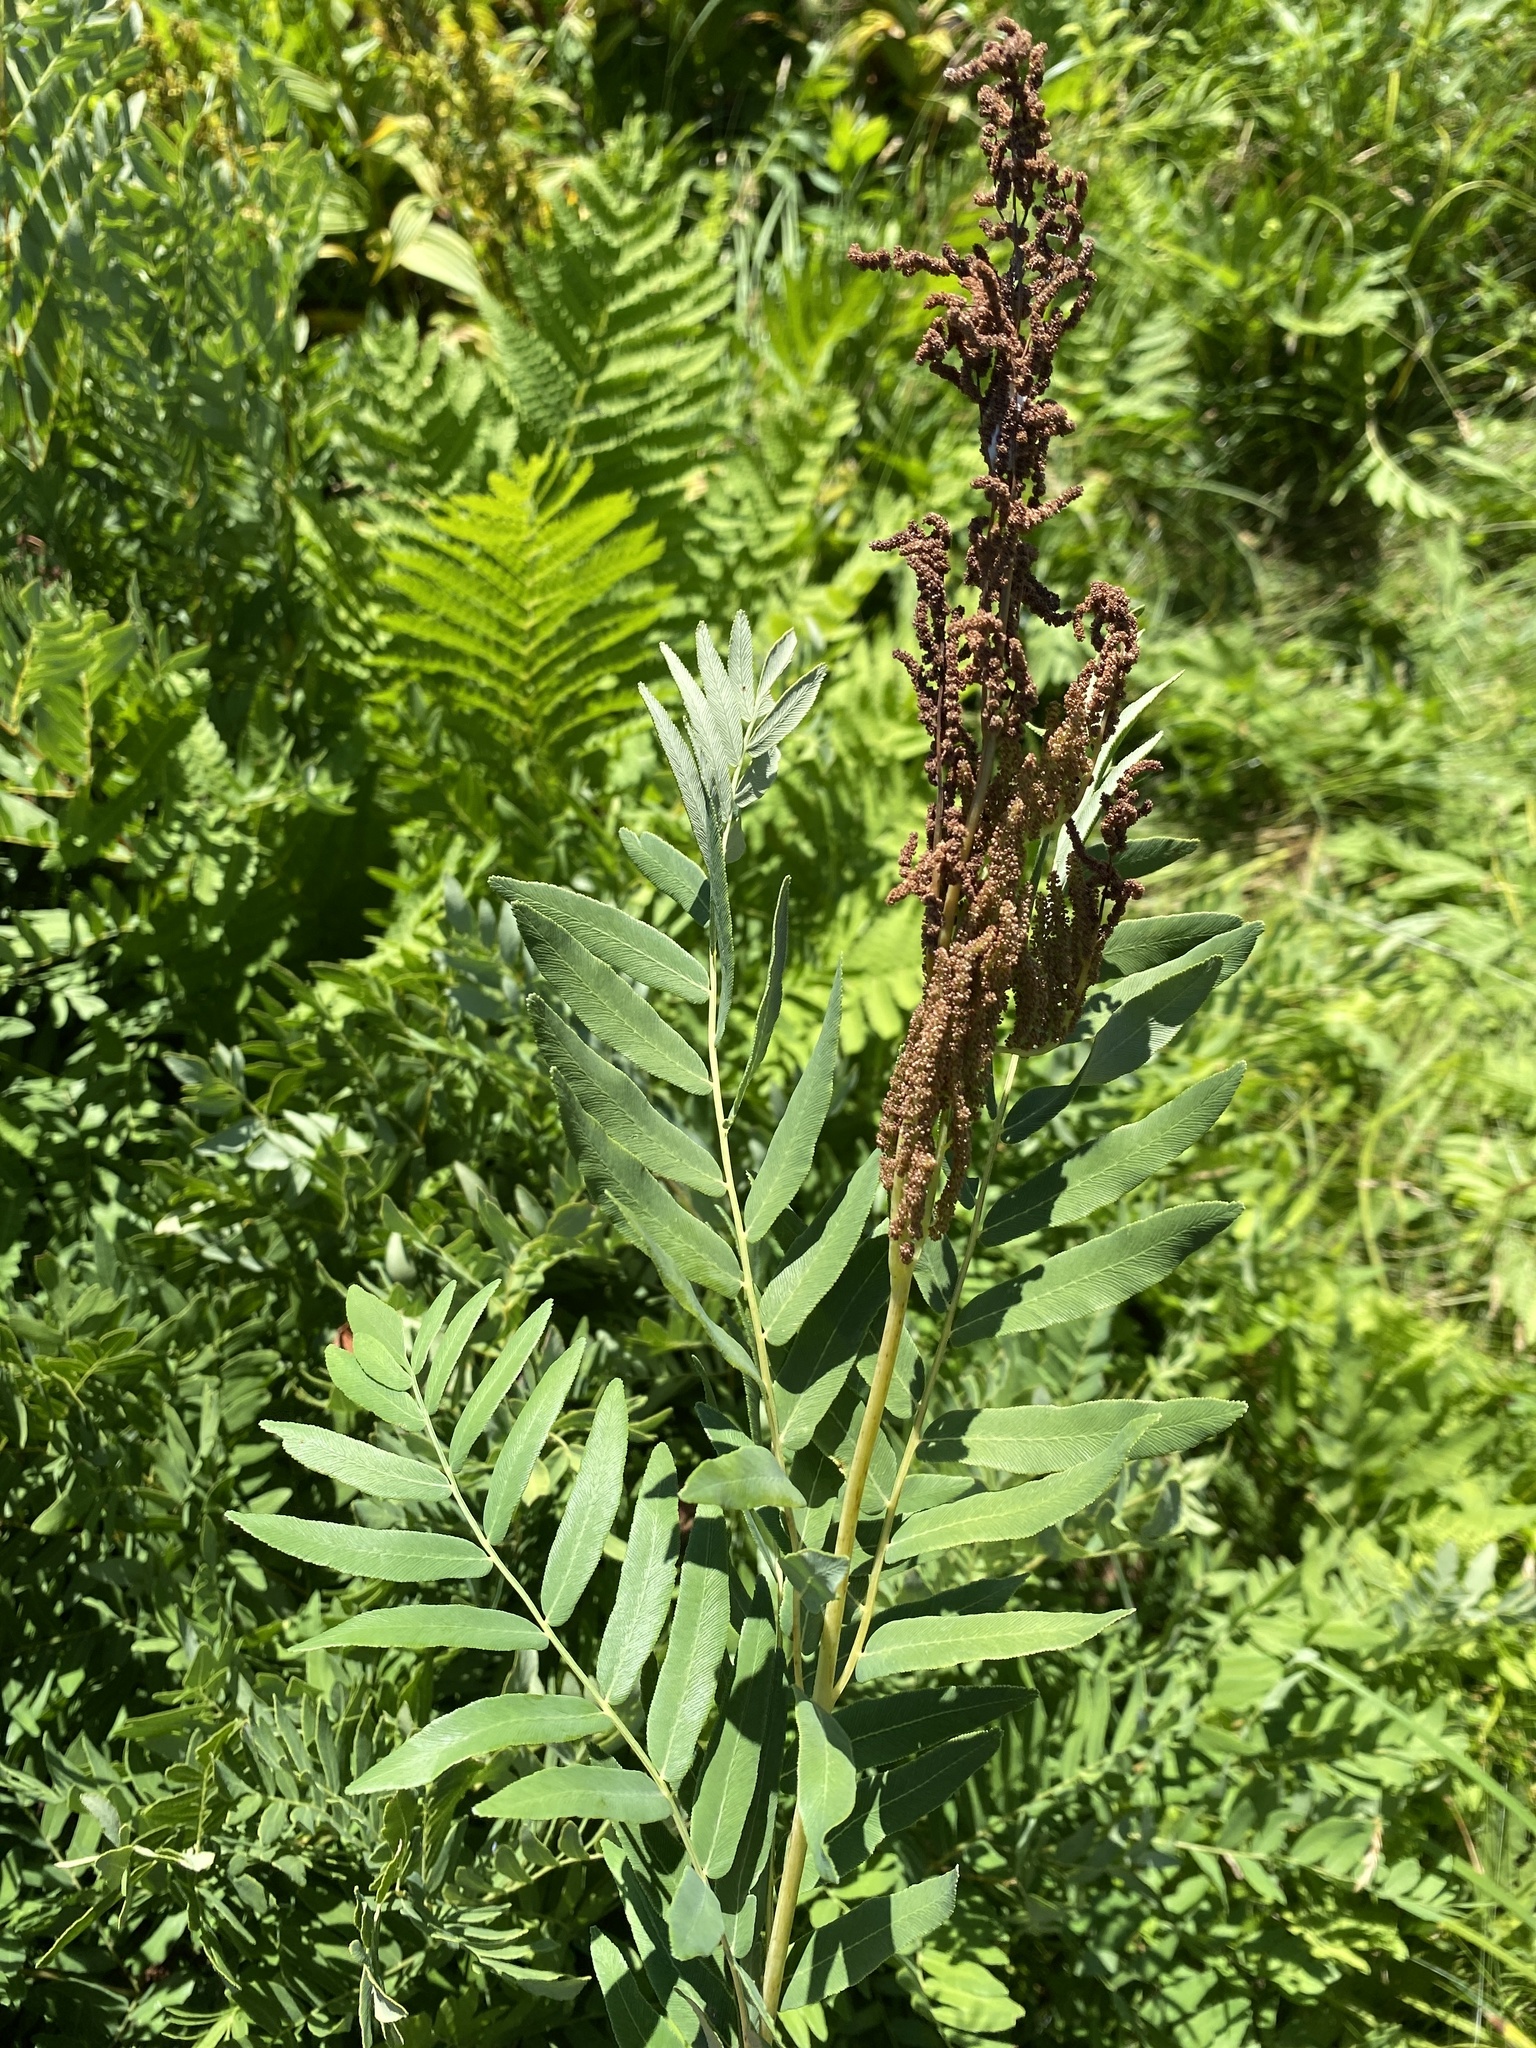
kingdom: Plantae
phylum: Tracheophyta
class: Polypodiopsida
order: Osmundales
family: Osmundaceae
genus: Osmunda
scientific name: Osmunda spectabilis
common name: American royal fern
